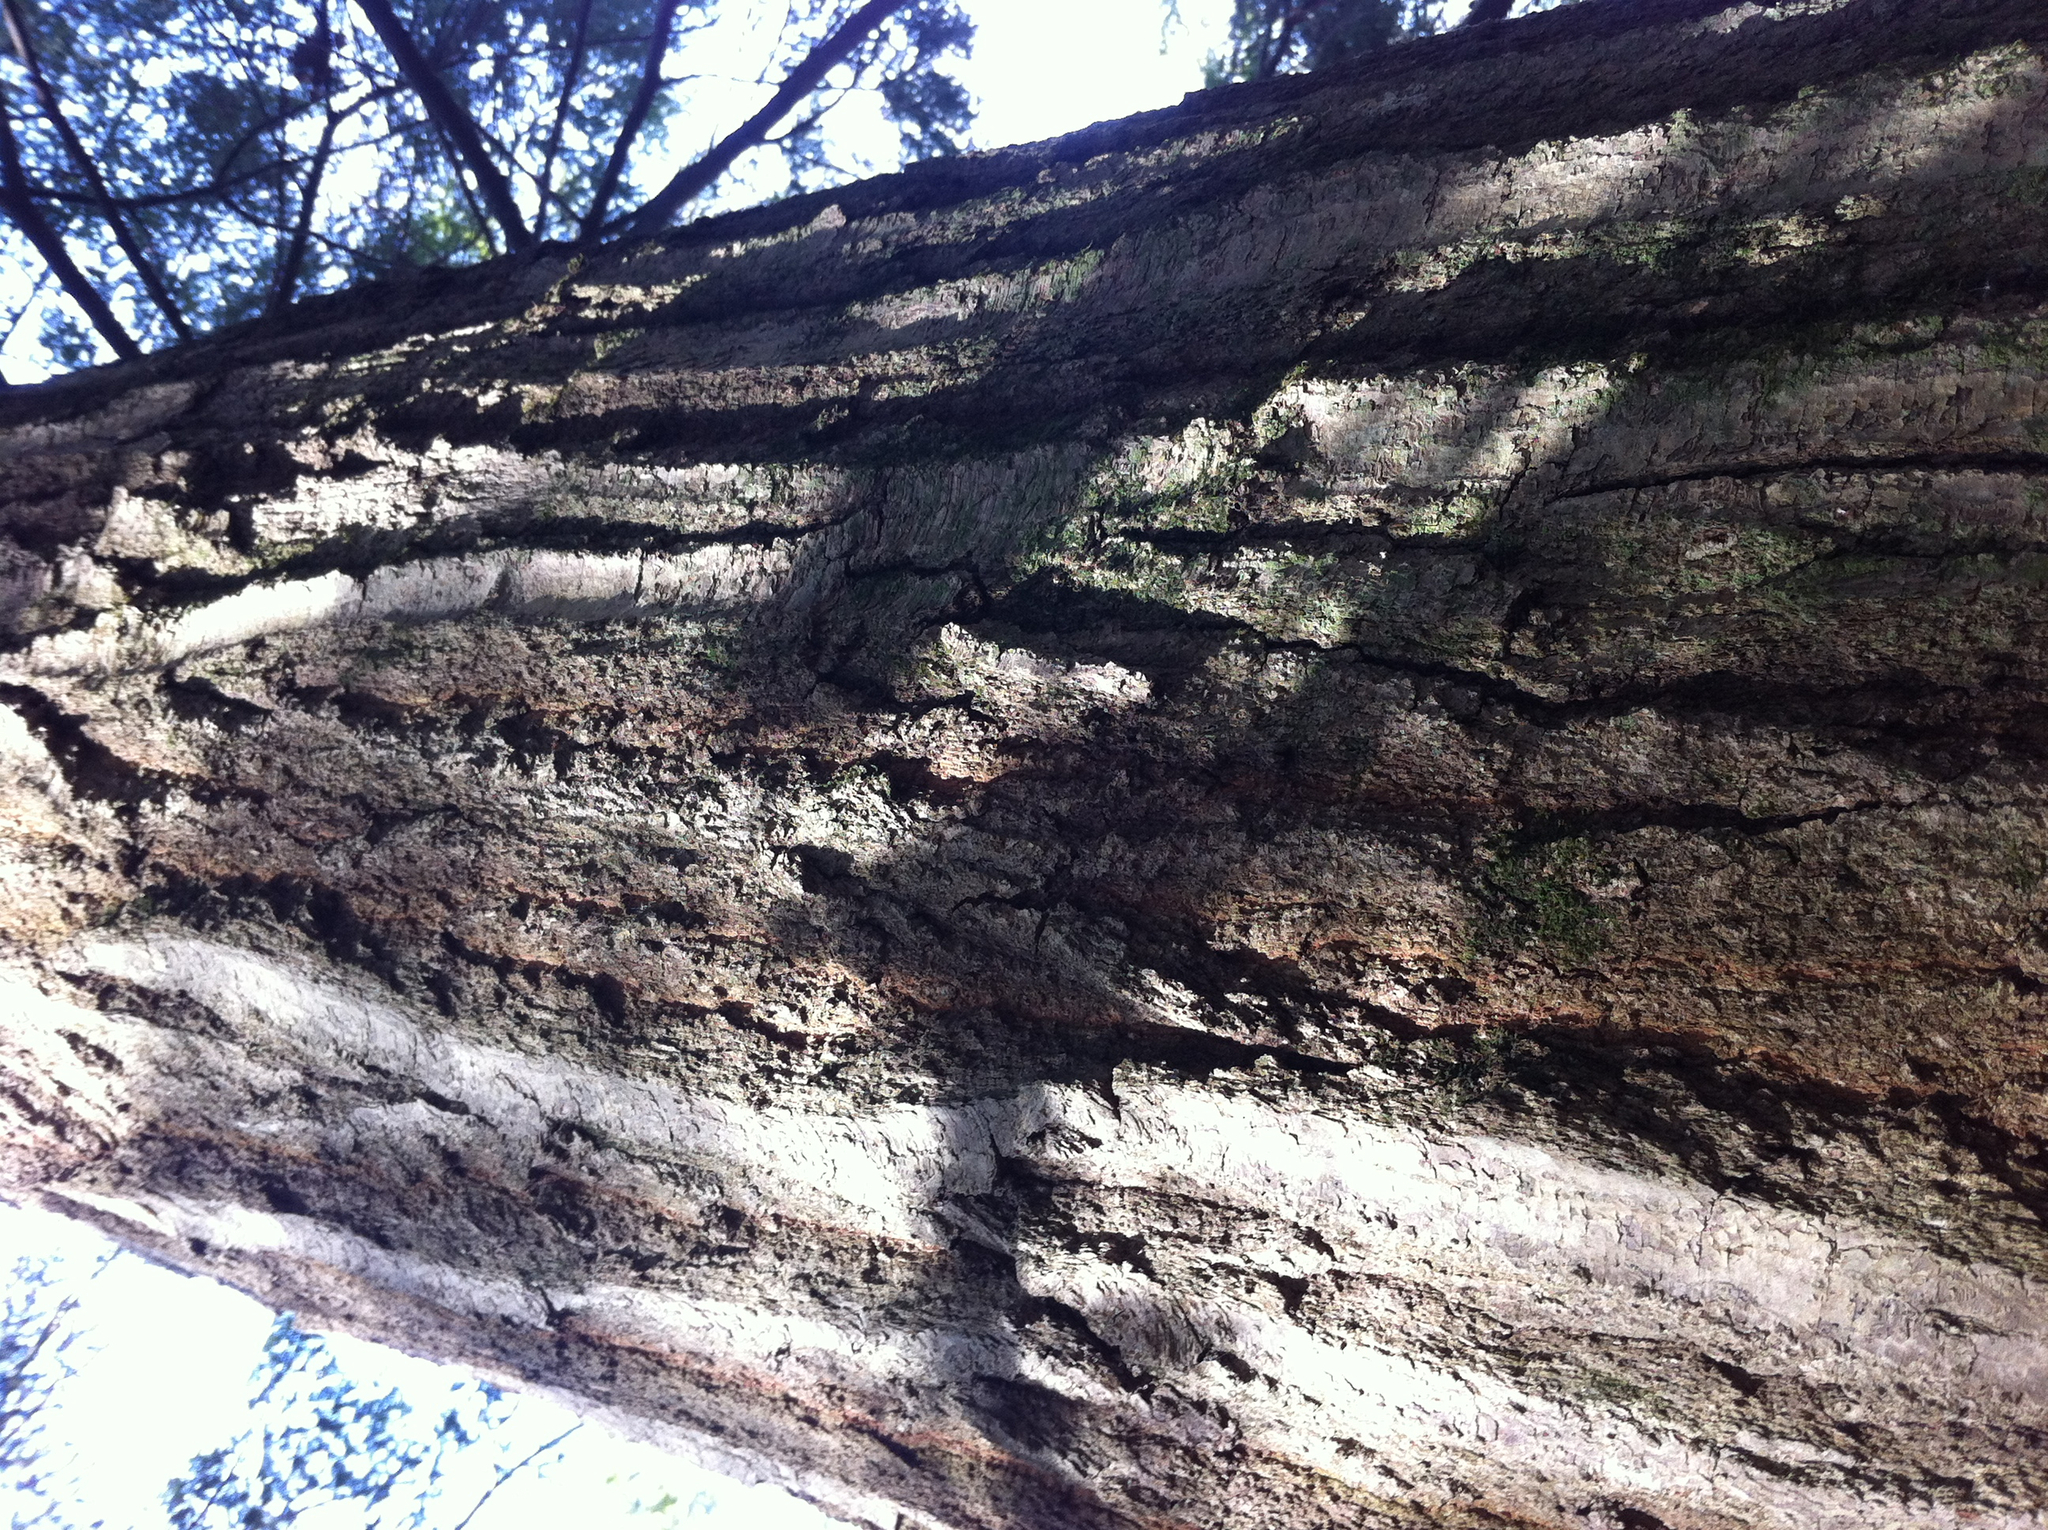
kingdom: Plantae
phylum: Tracheophyta
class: Magnoliopsida
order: Fagales
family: Fagaceae
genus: Quercus
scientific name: Quercus rubra
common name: Red oak
